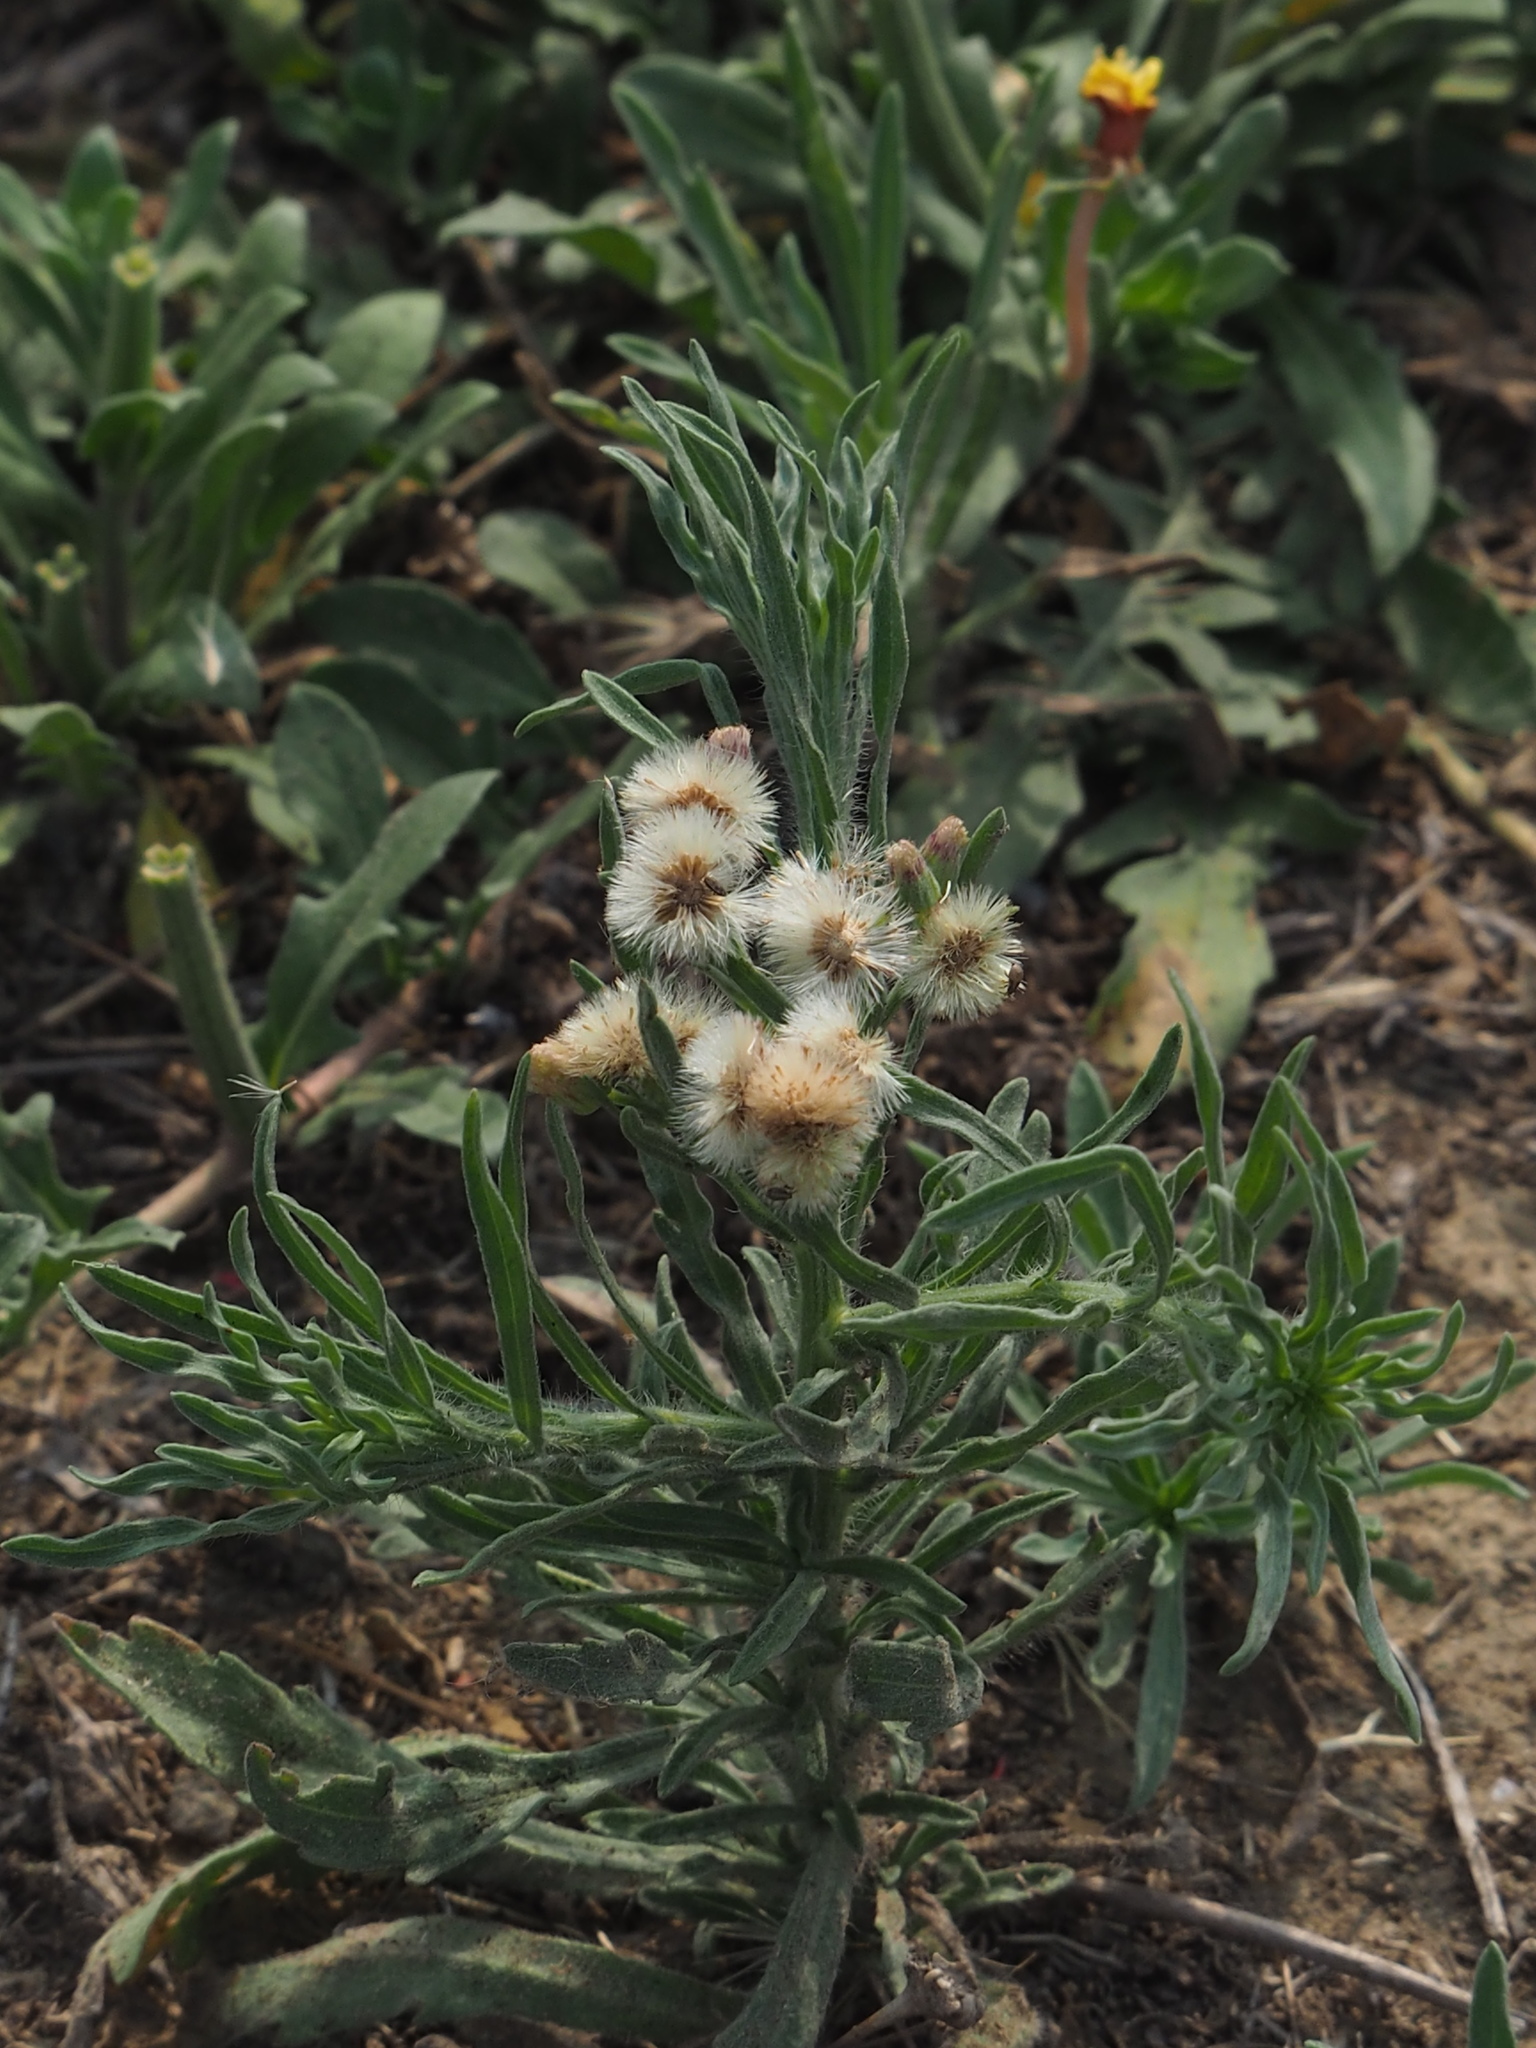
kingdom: Plantae
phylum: Tracheophyta
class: Magnoliopsida
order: Asterales
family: Asteraceae
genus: Erigeron
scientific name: Erigeron bonariensis
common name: Argentine fleabane
